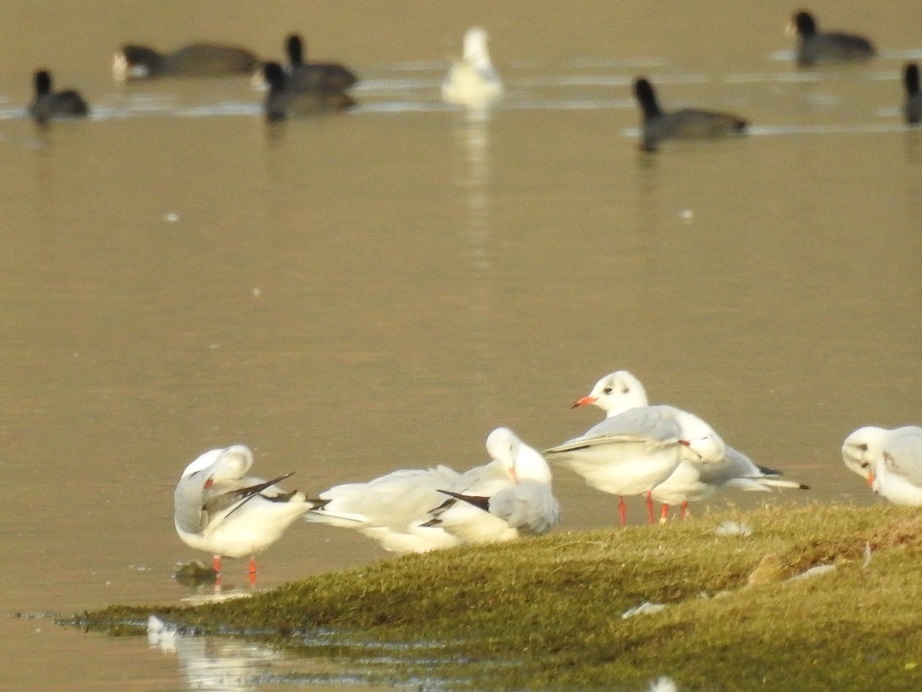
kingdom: Animalia
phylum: Chordata
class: Aves
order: Charadriiformes
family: Laridae
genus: Chroicocephalus
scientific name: Chroicocephalus ridibundus
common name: Black-headed gull
